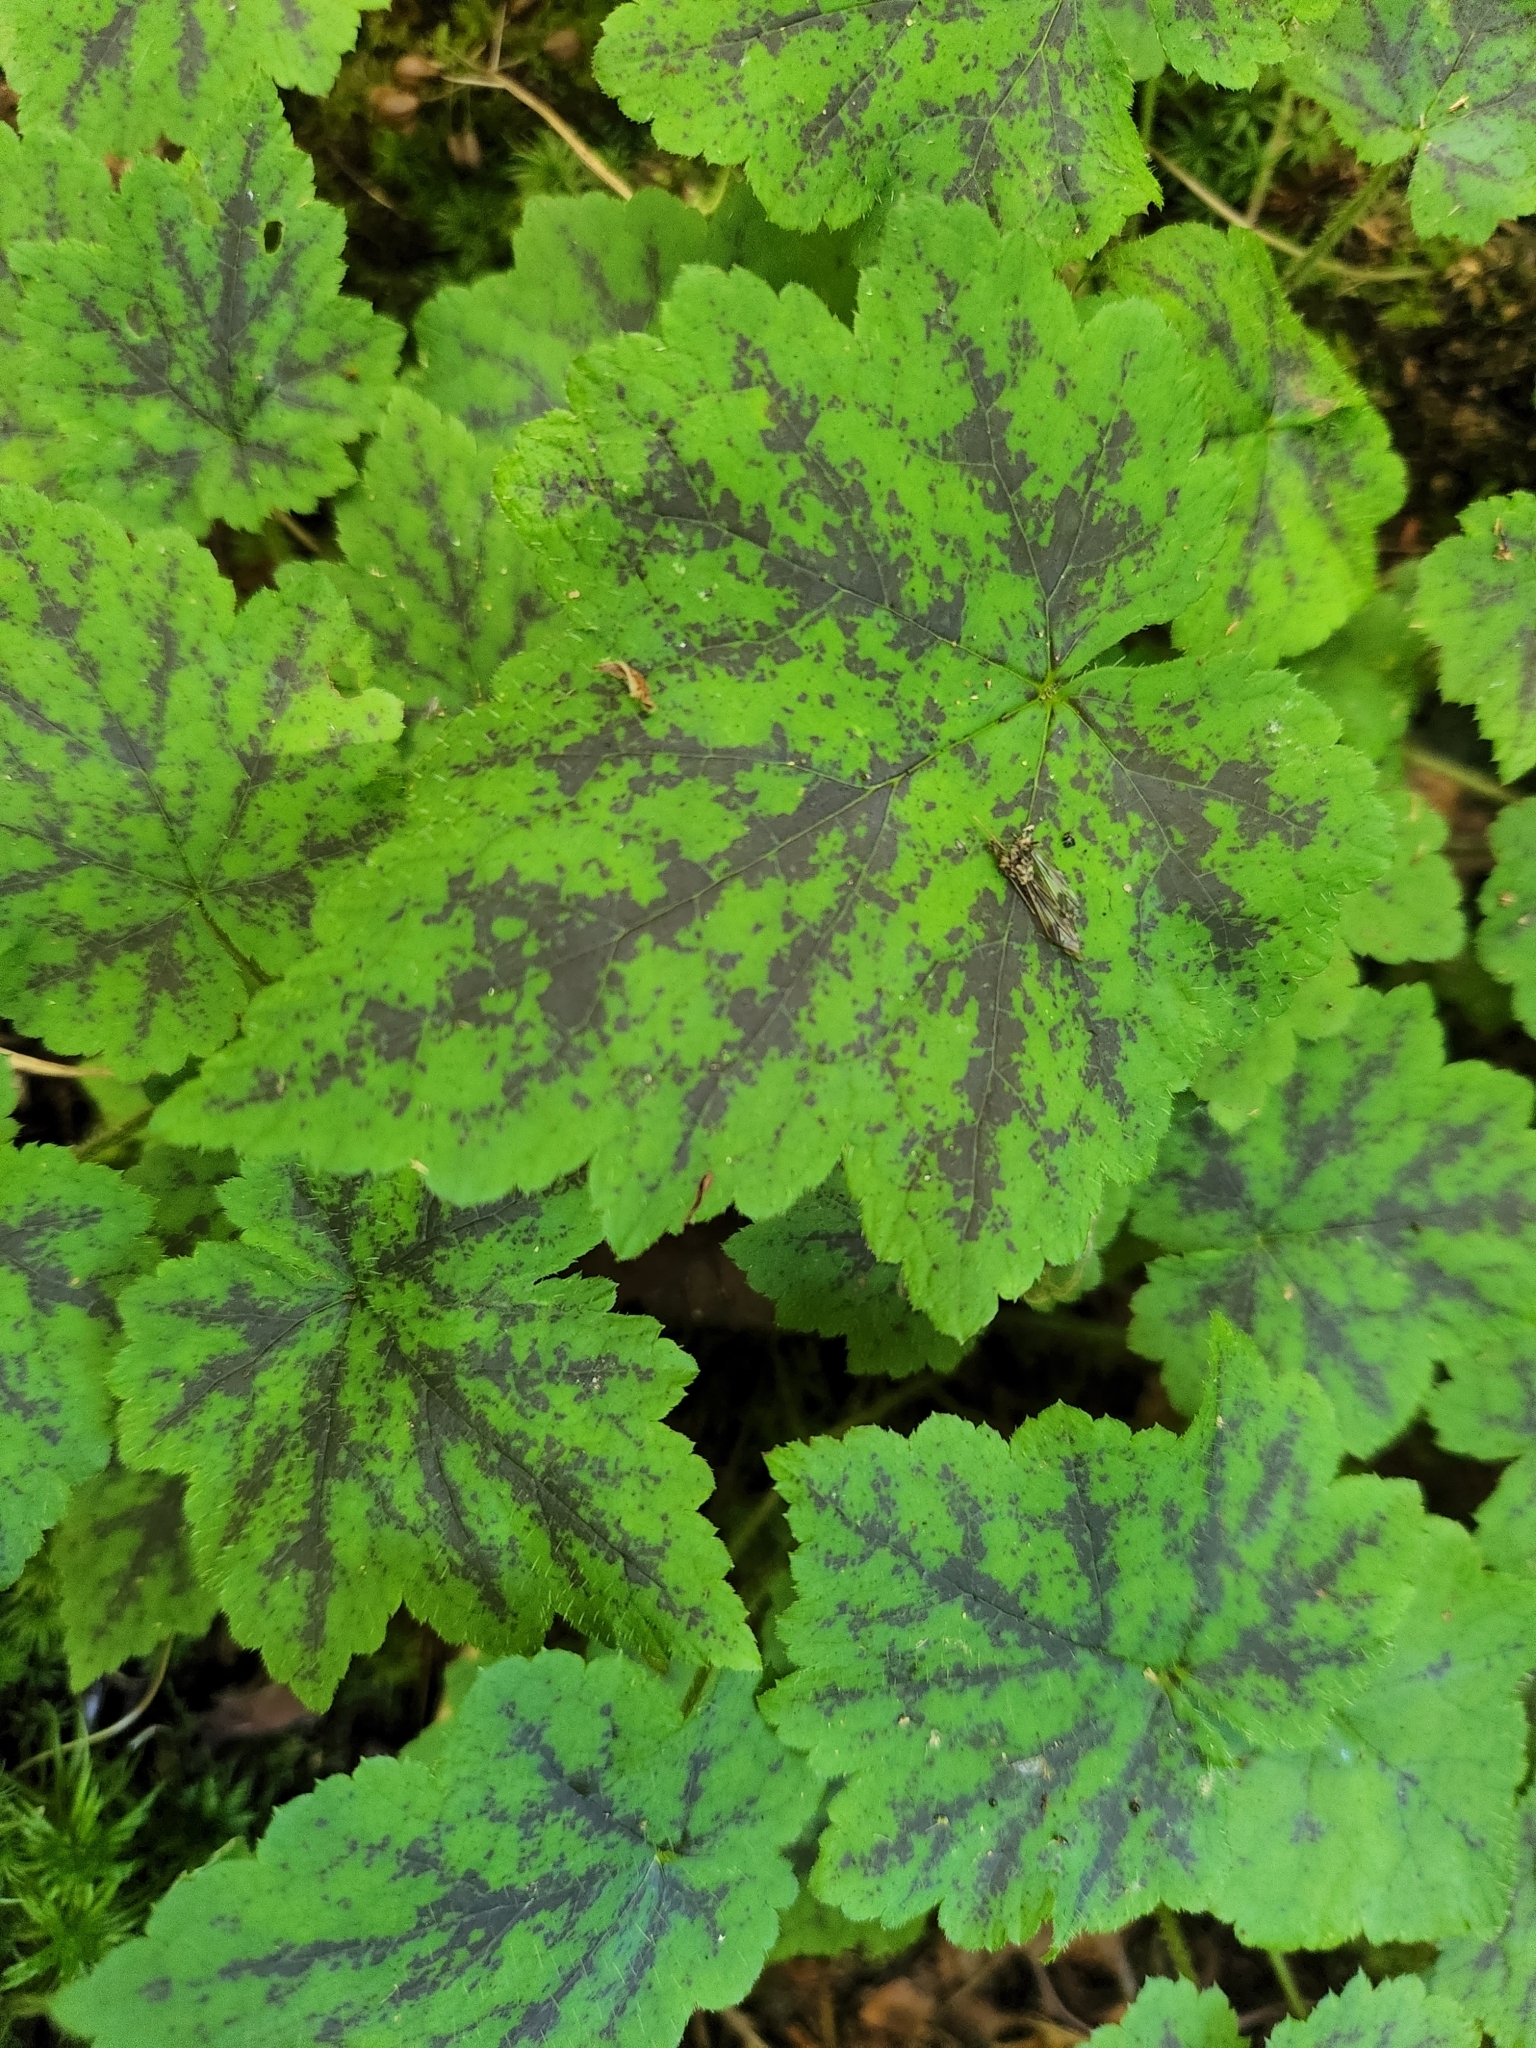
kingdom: Plantae
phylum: Tracheophyta
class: Magnoliopsida
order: Saxifragales
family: Saxifragaceae
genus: Tiarella
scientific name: Tiarella stolonifera
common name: Stoloniferous foamflower
